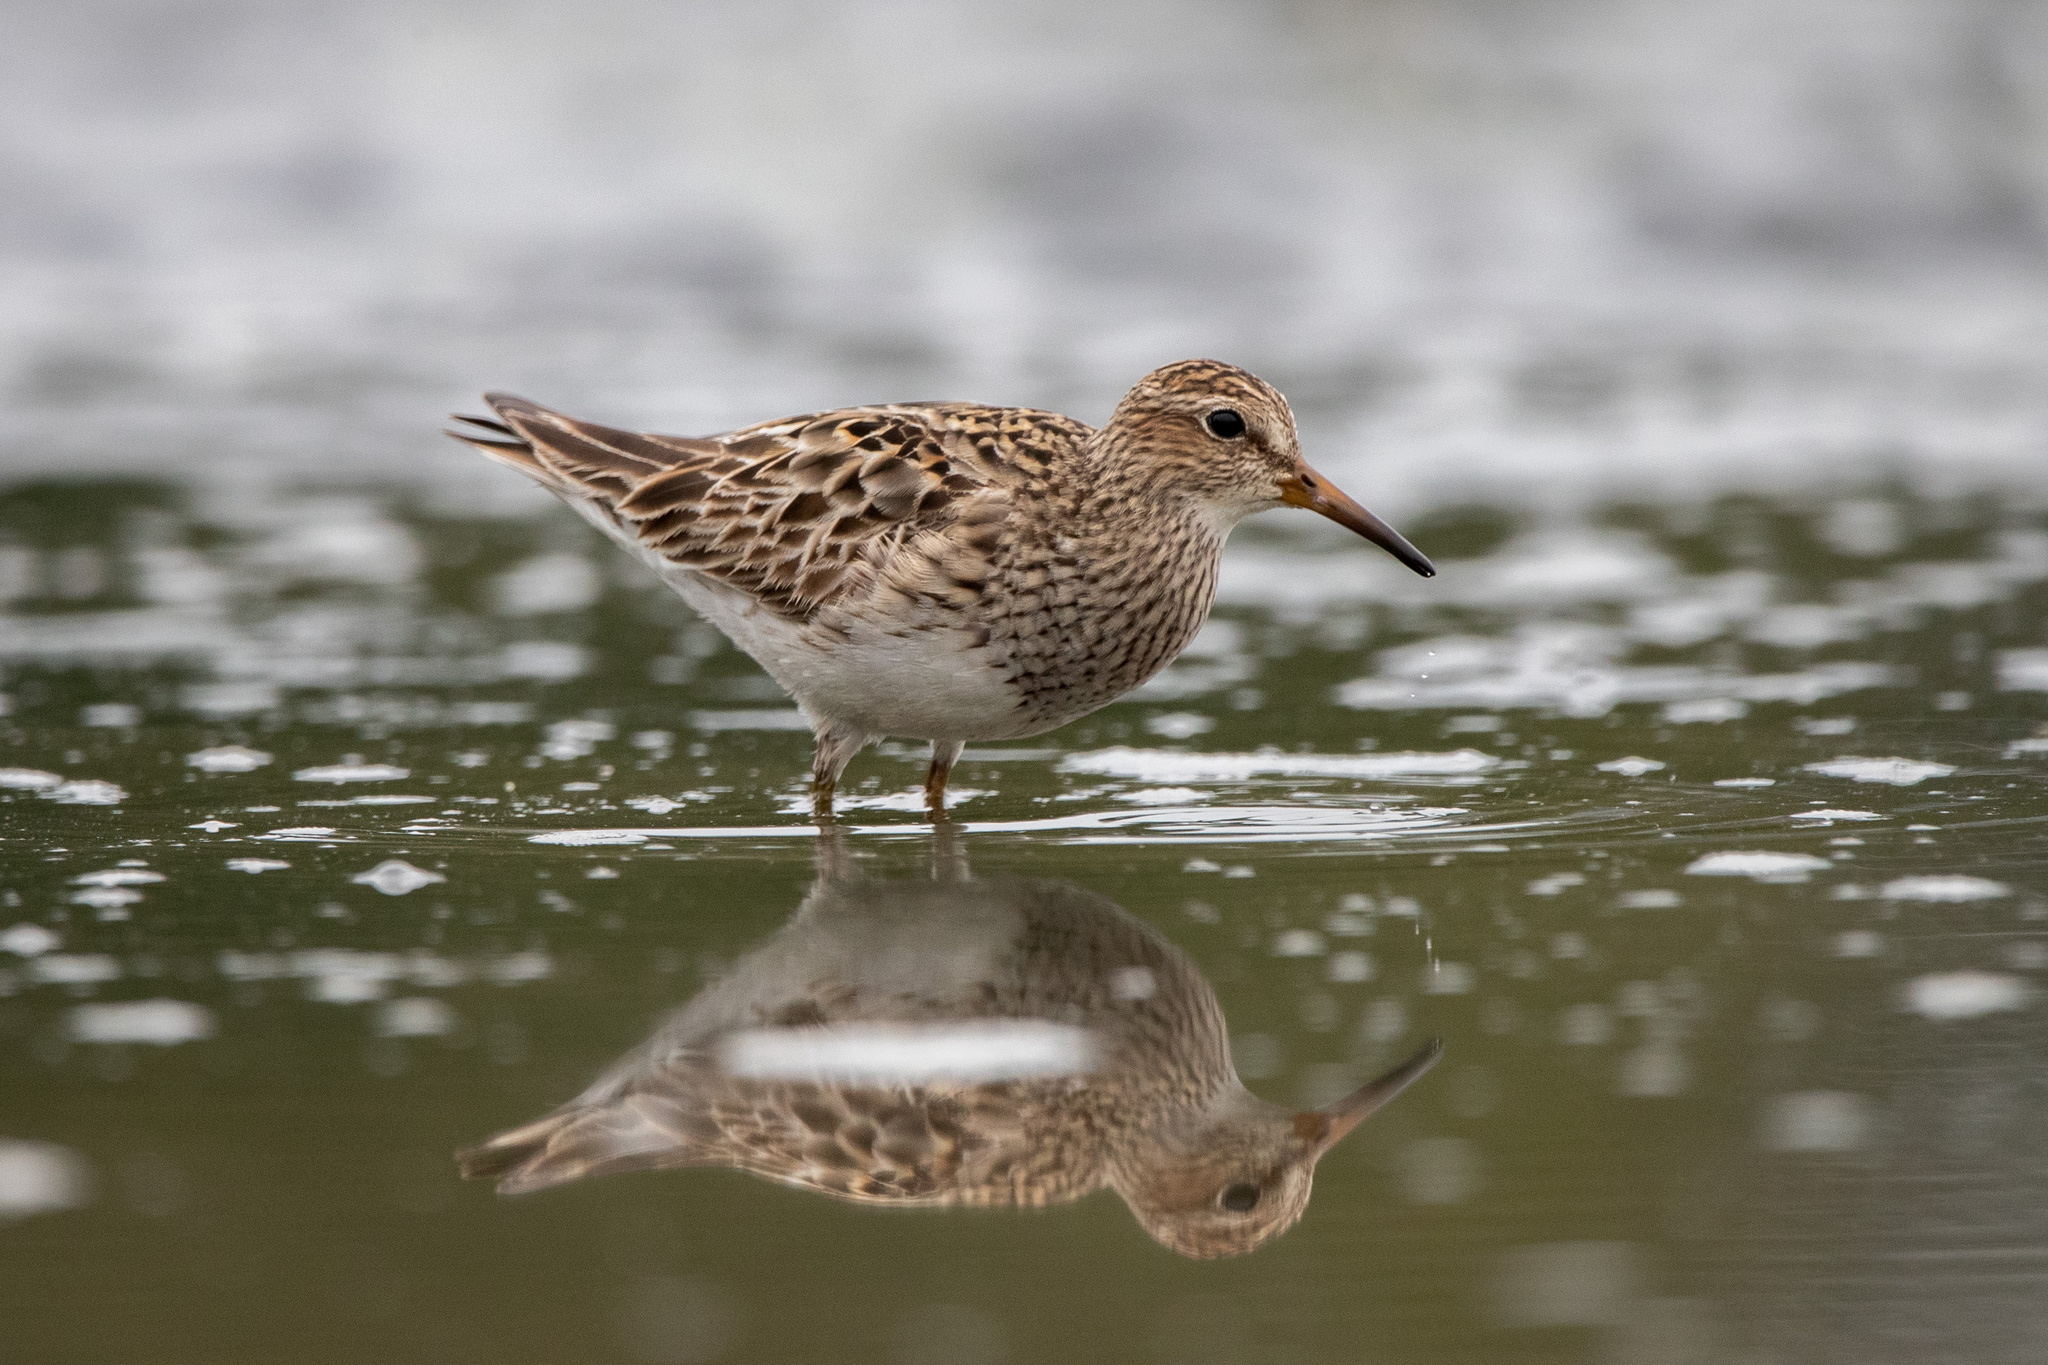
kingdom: Animalia
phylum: Chordata
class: Aves
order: Charadriiformes
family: Scolopacidae
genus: Calidris
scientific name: Calidris melanotos
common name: Pectoral sandpiper
